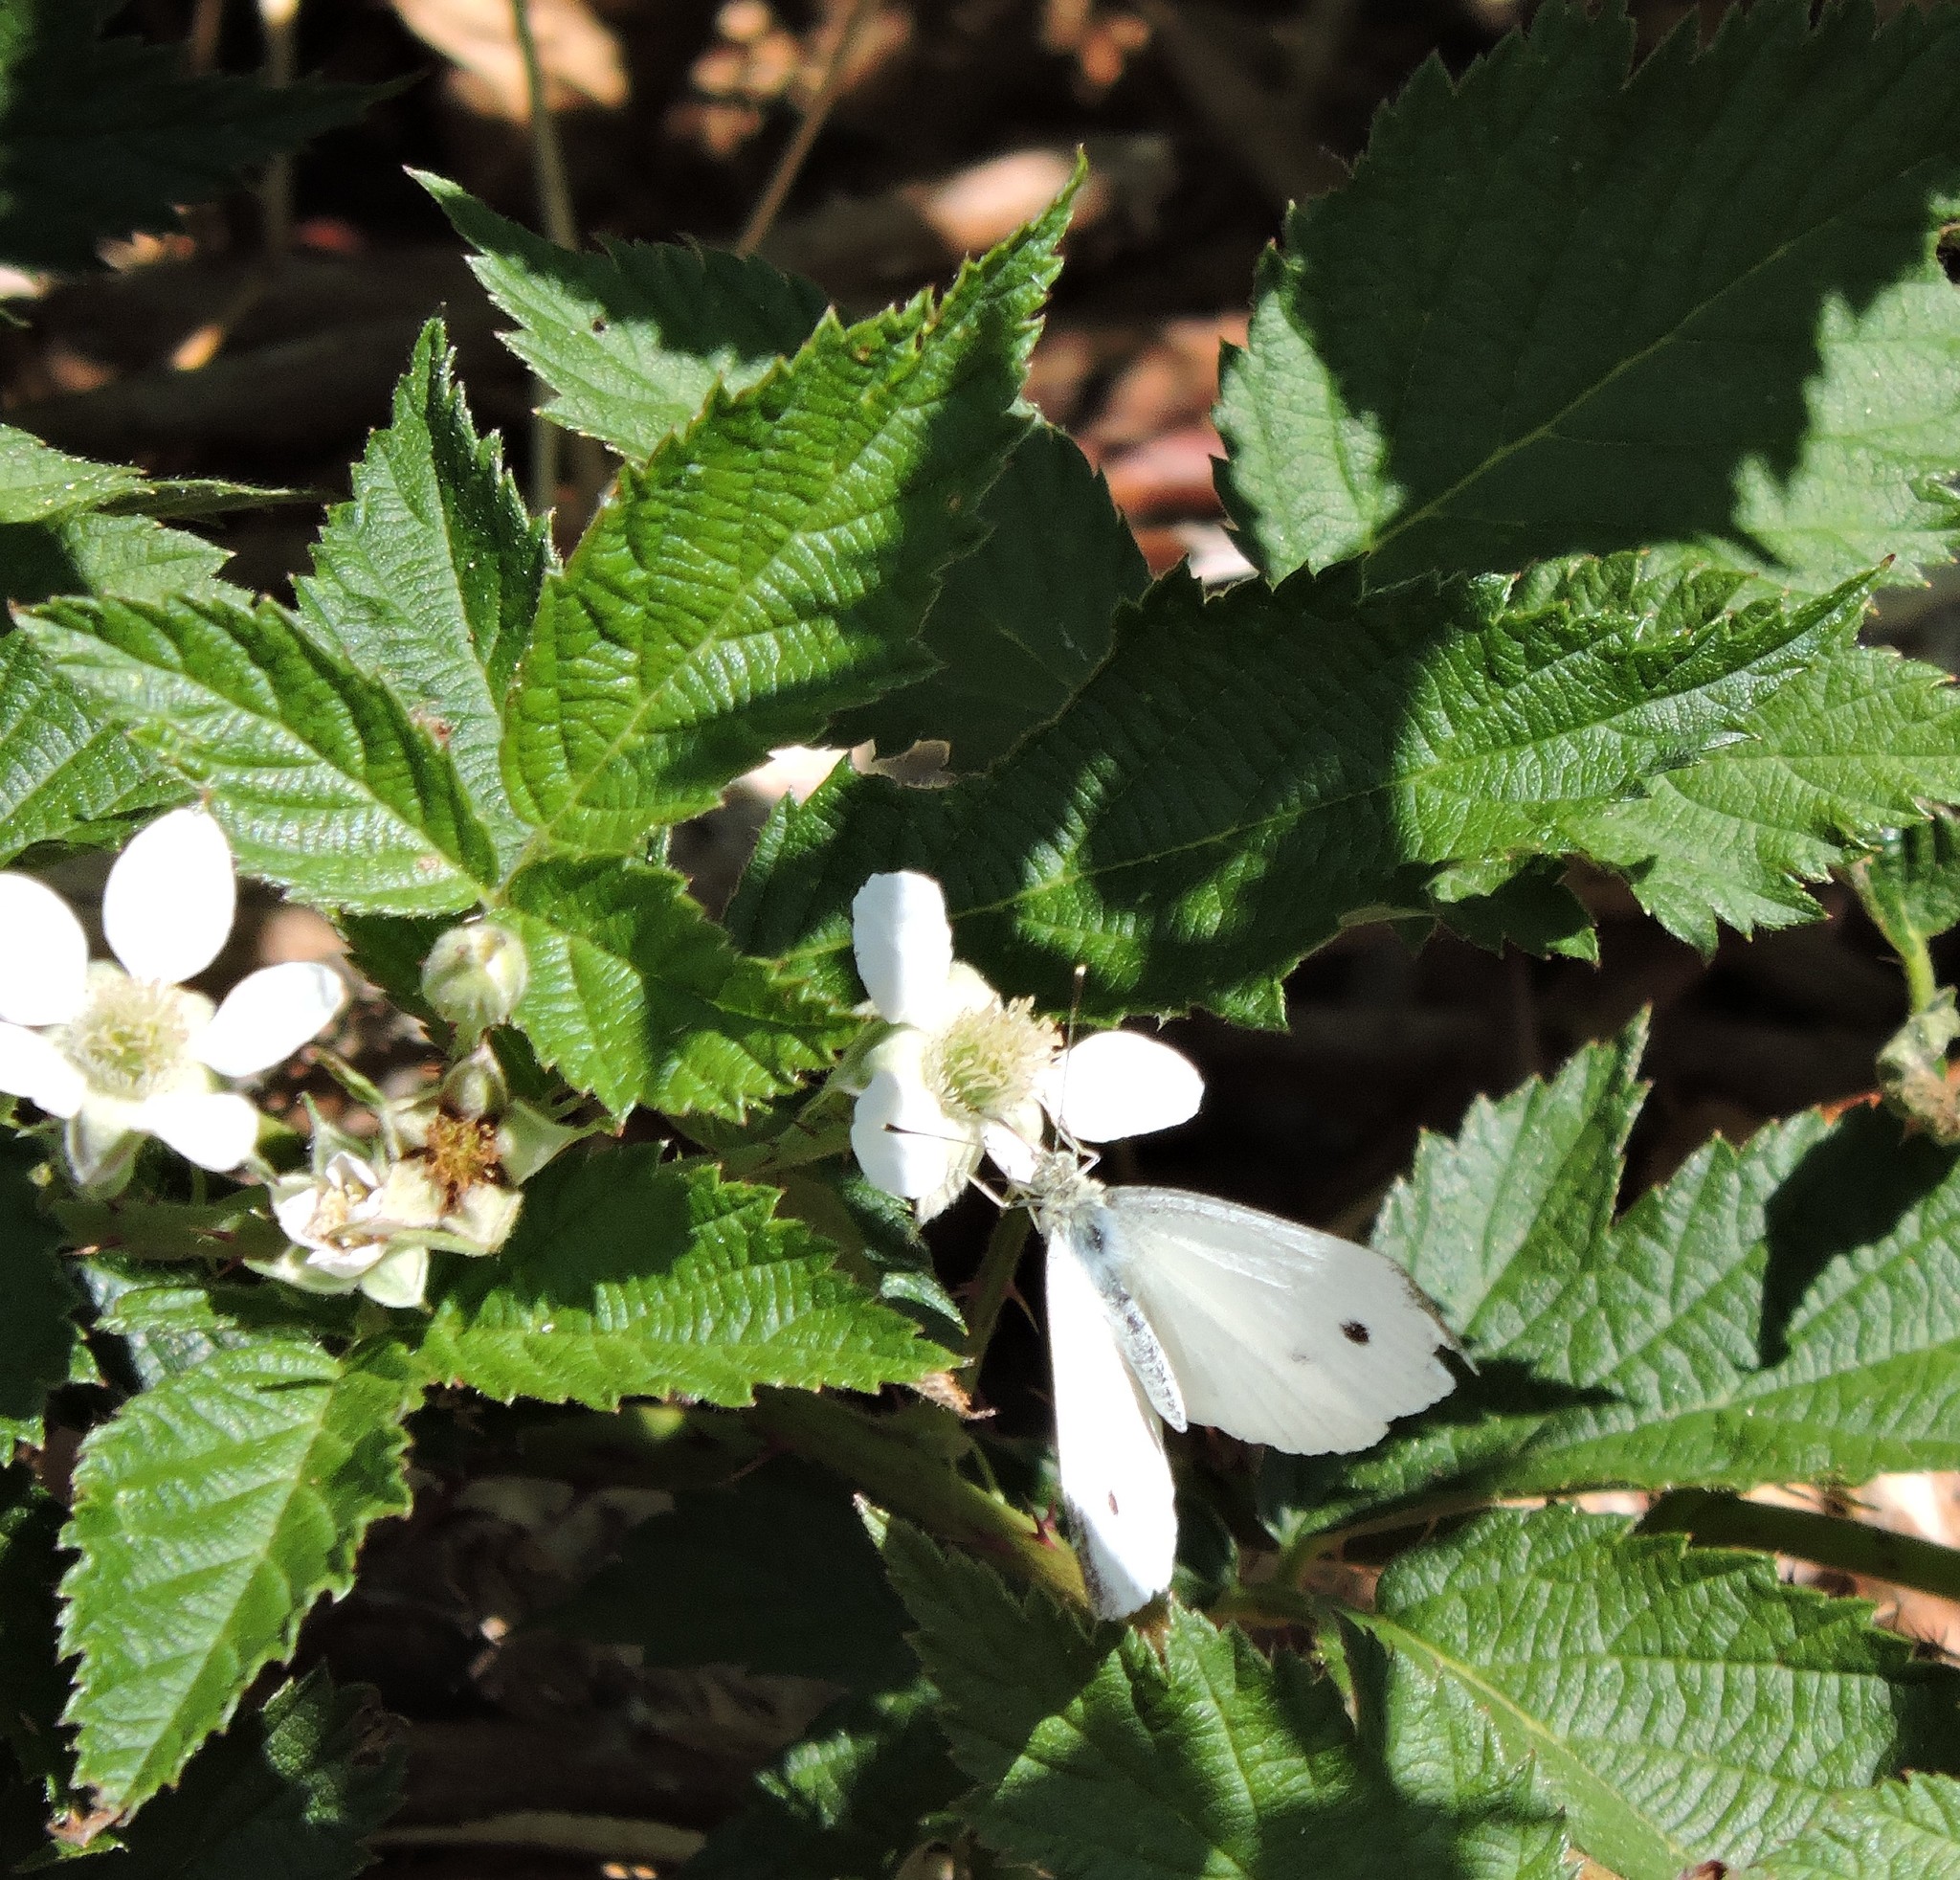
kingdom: Animalia
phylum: Arthropoda
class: Insecta
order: Lepidoptera
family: Pieridae
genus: Pieris
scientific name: Pieris rapae
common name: Small white
